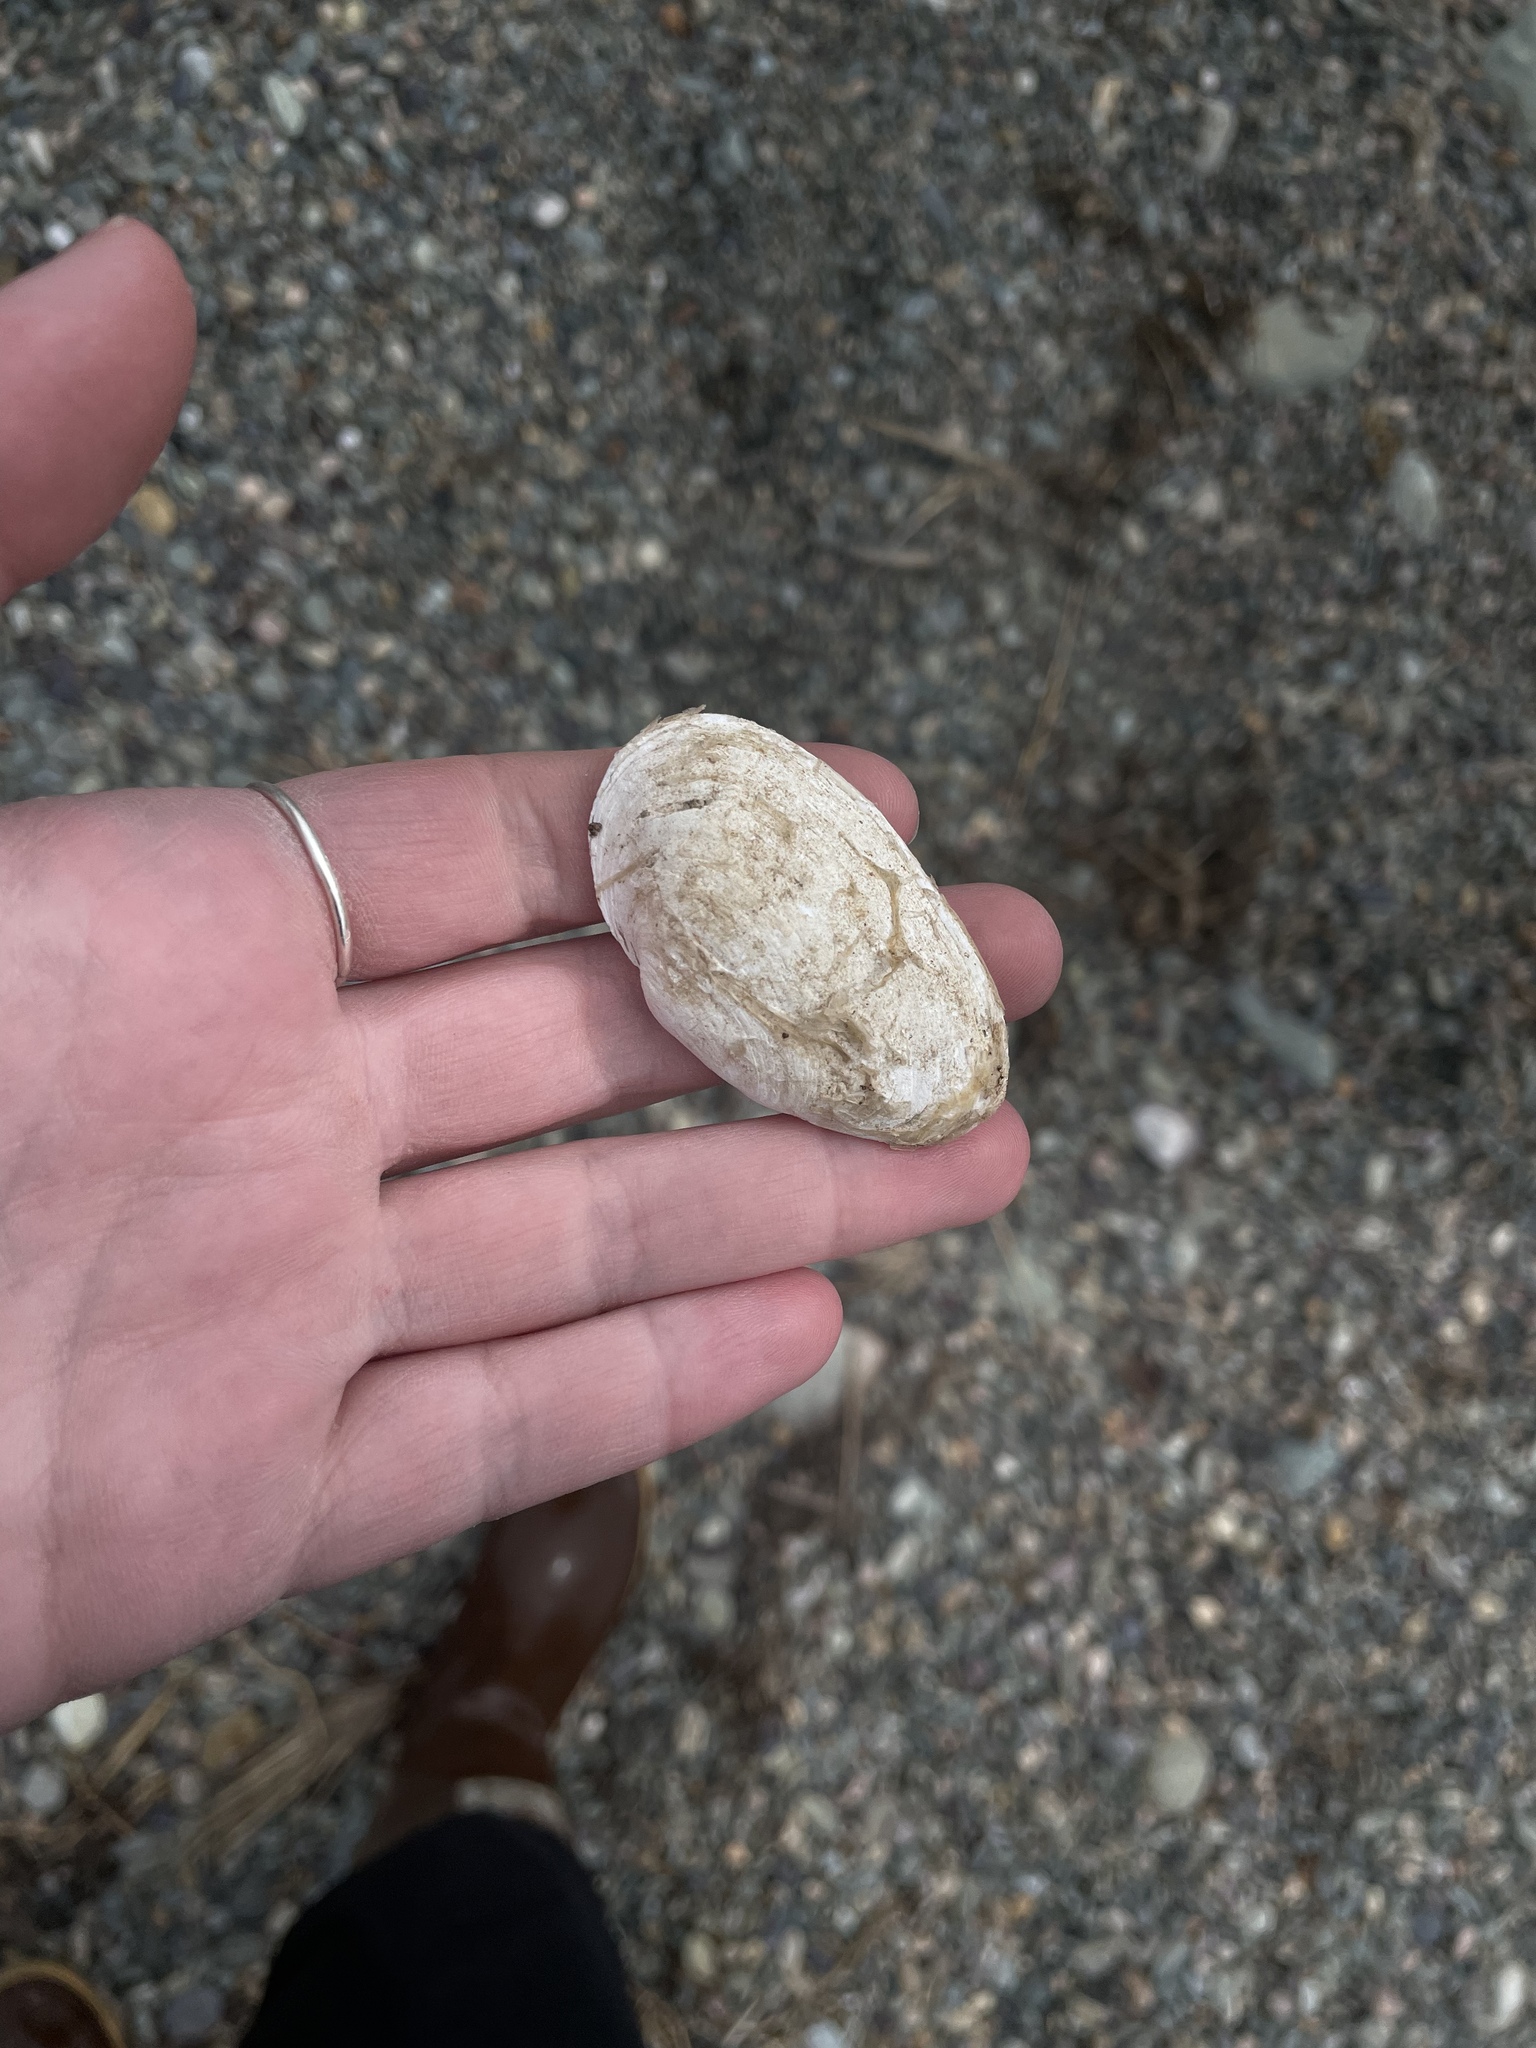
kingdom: Animalia
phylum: Mollusca
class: Bivalvia
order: Myida
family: Myidae
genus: Mya
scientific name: Mya arenaria
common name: Soft-shelled clam
